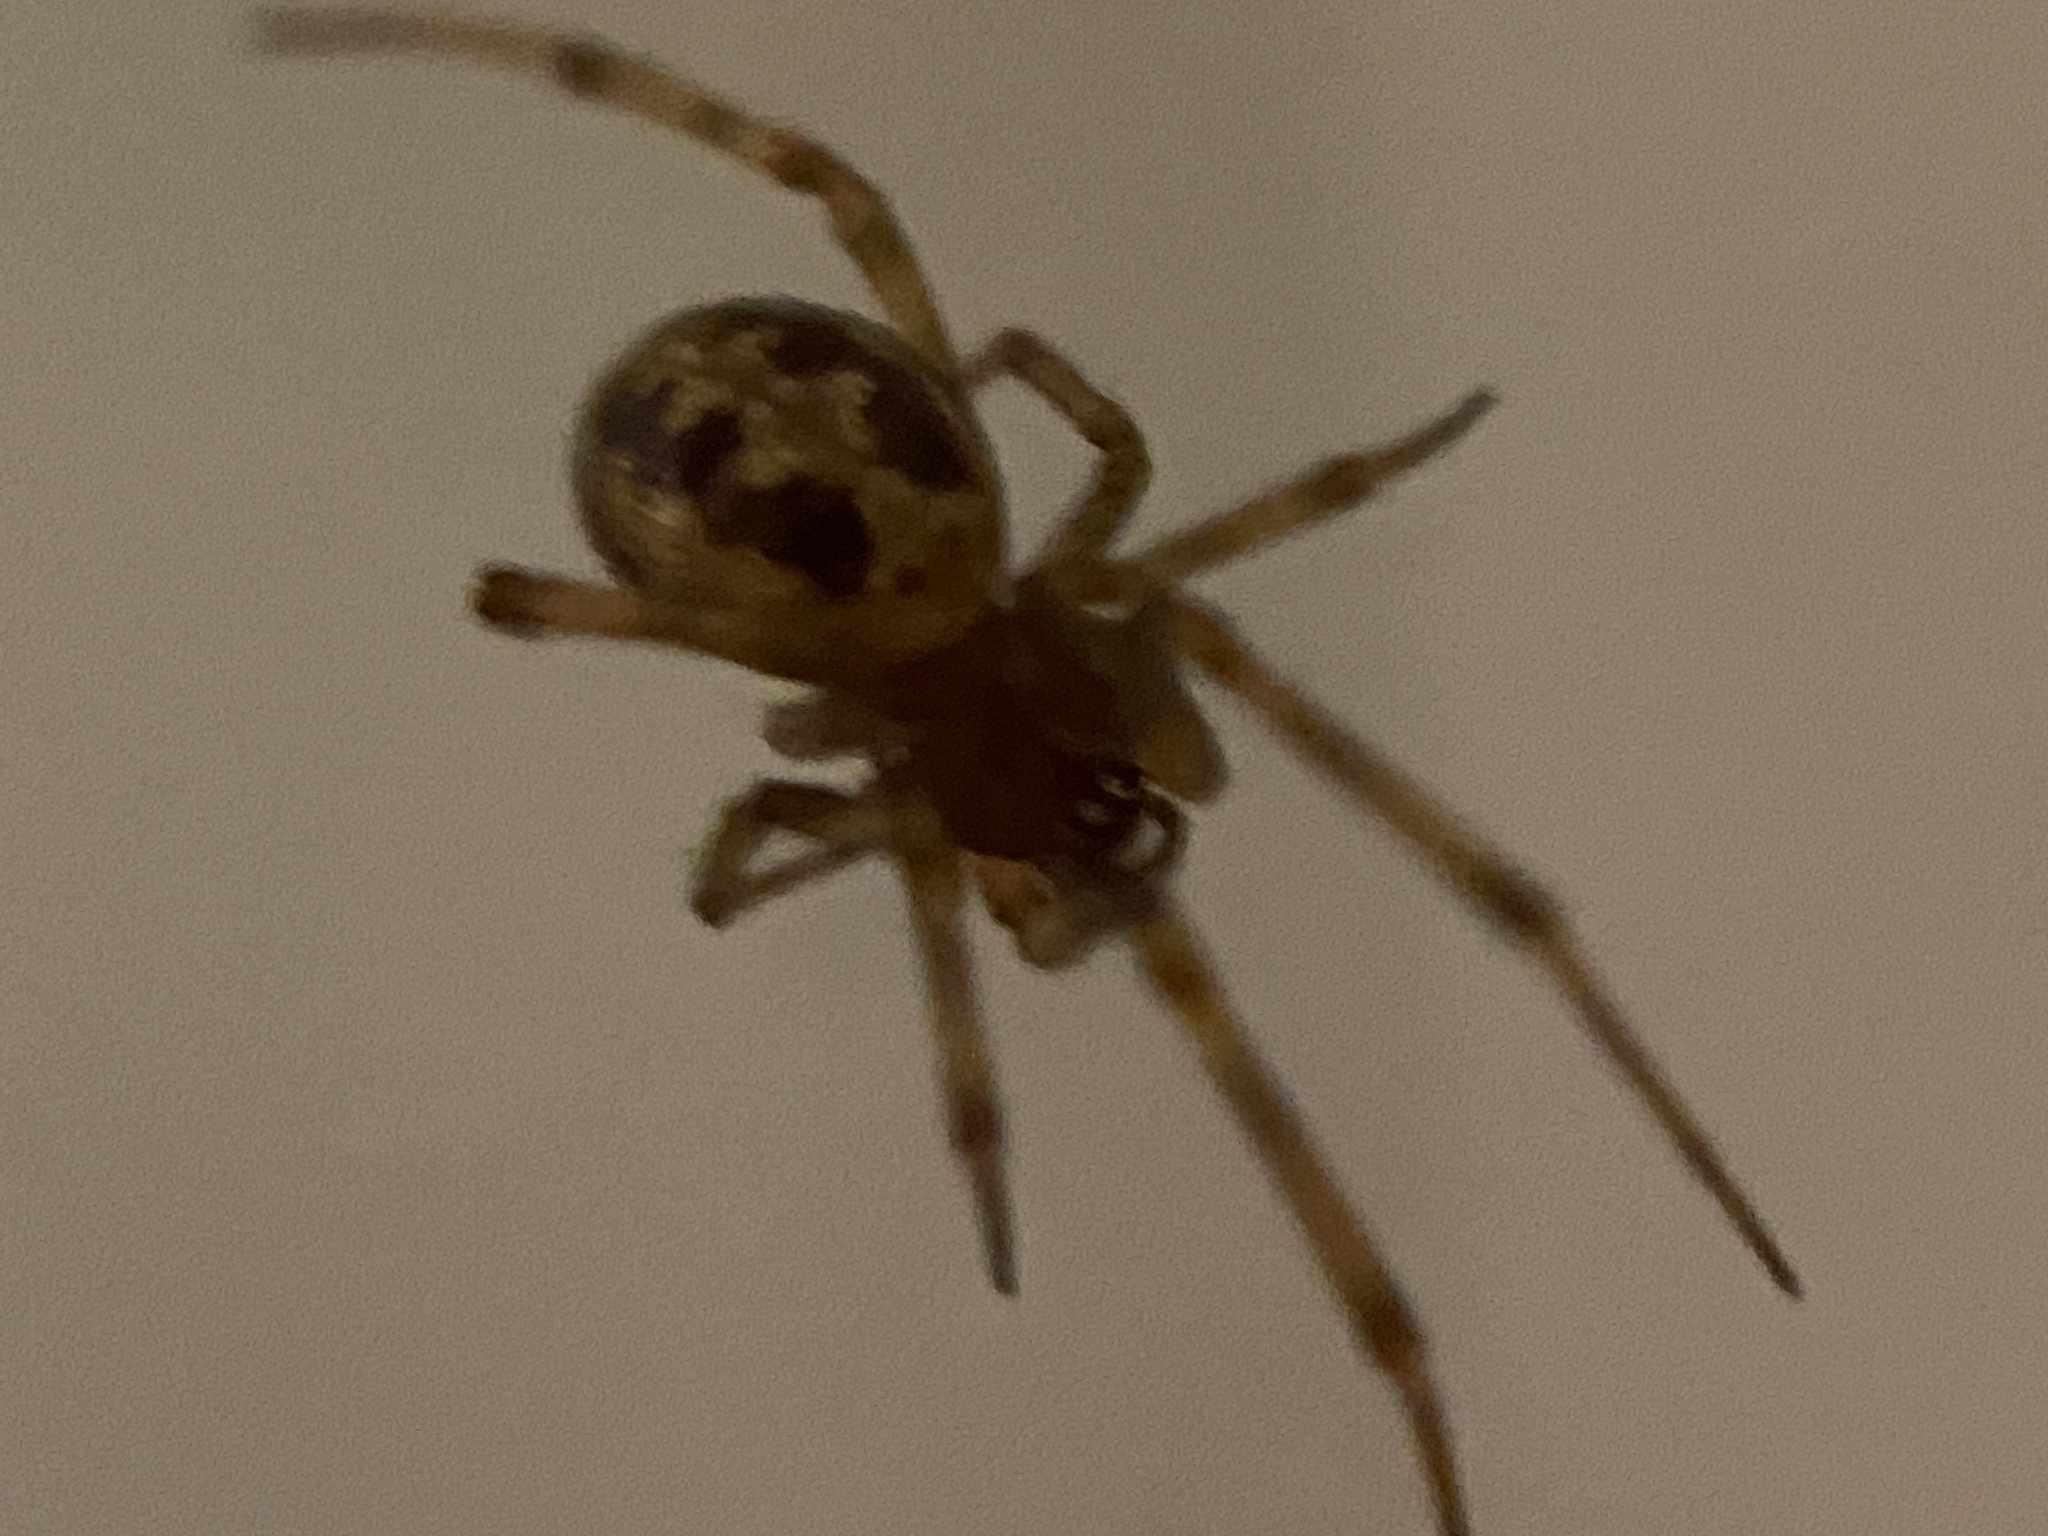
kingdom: Animalia
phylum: Arthropoda
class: Arachnida
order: Araneae
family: Theridiidae
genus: Steatoda
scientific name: Steatoda triangulosa
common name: Triangulate bud spider
